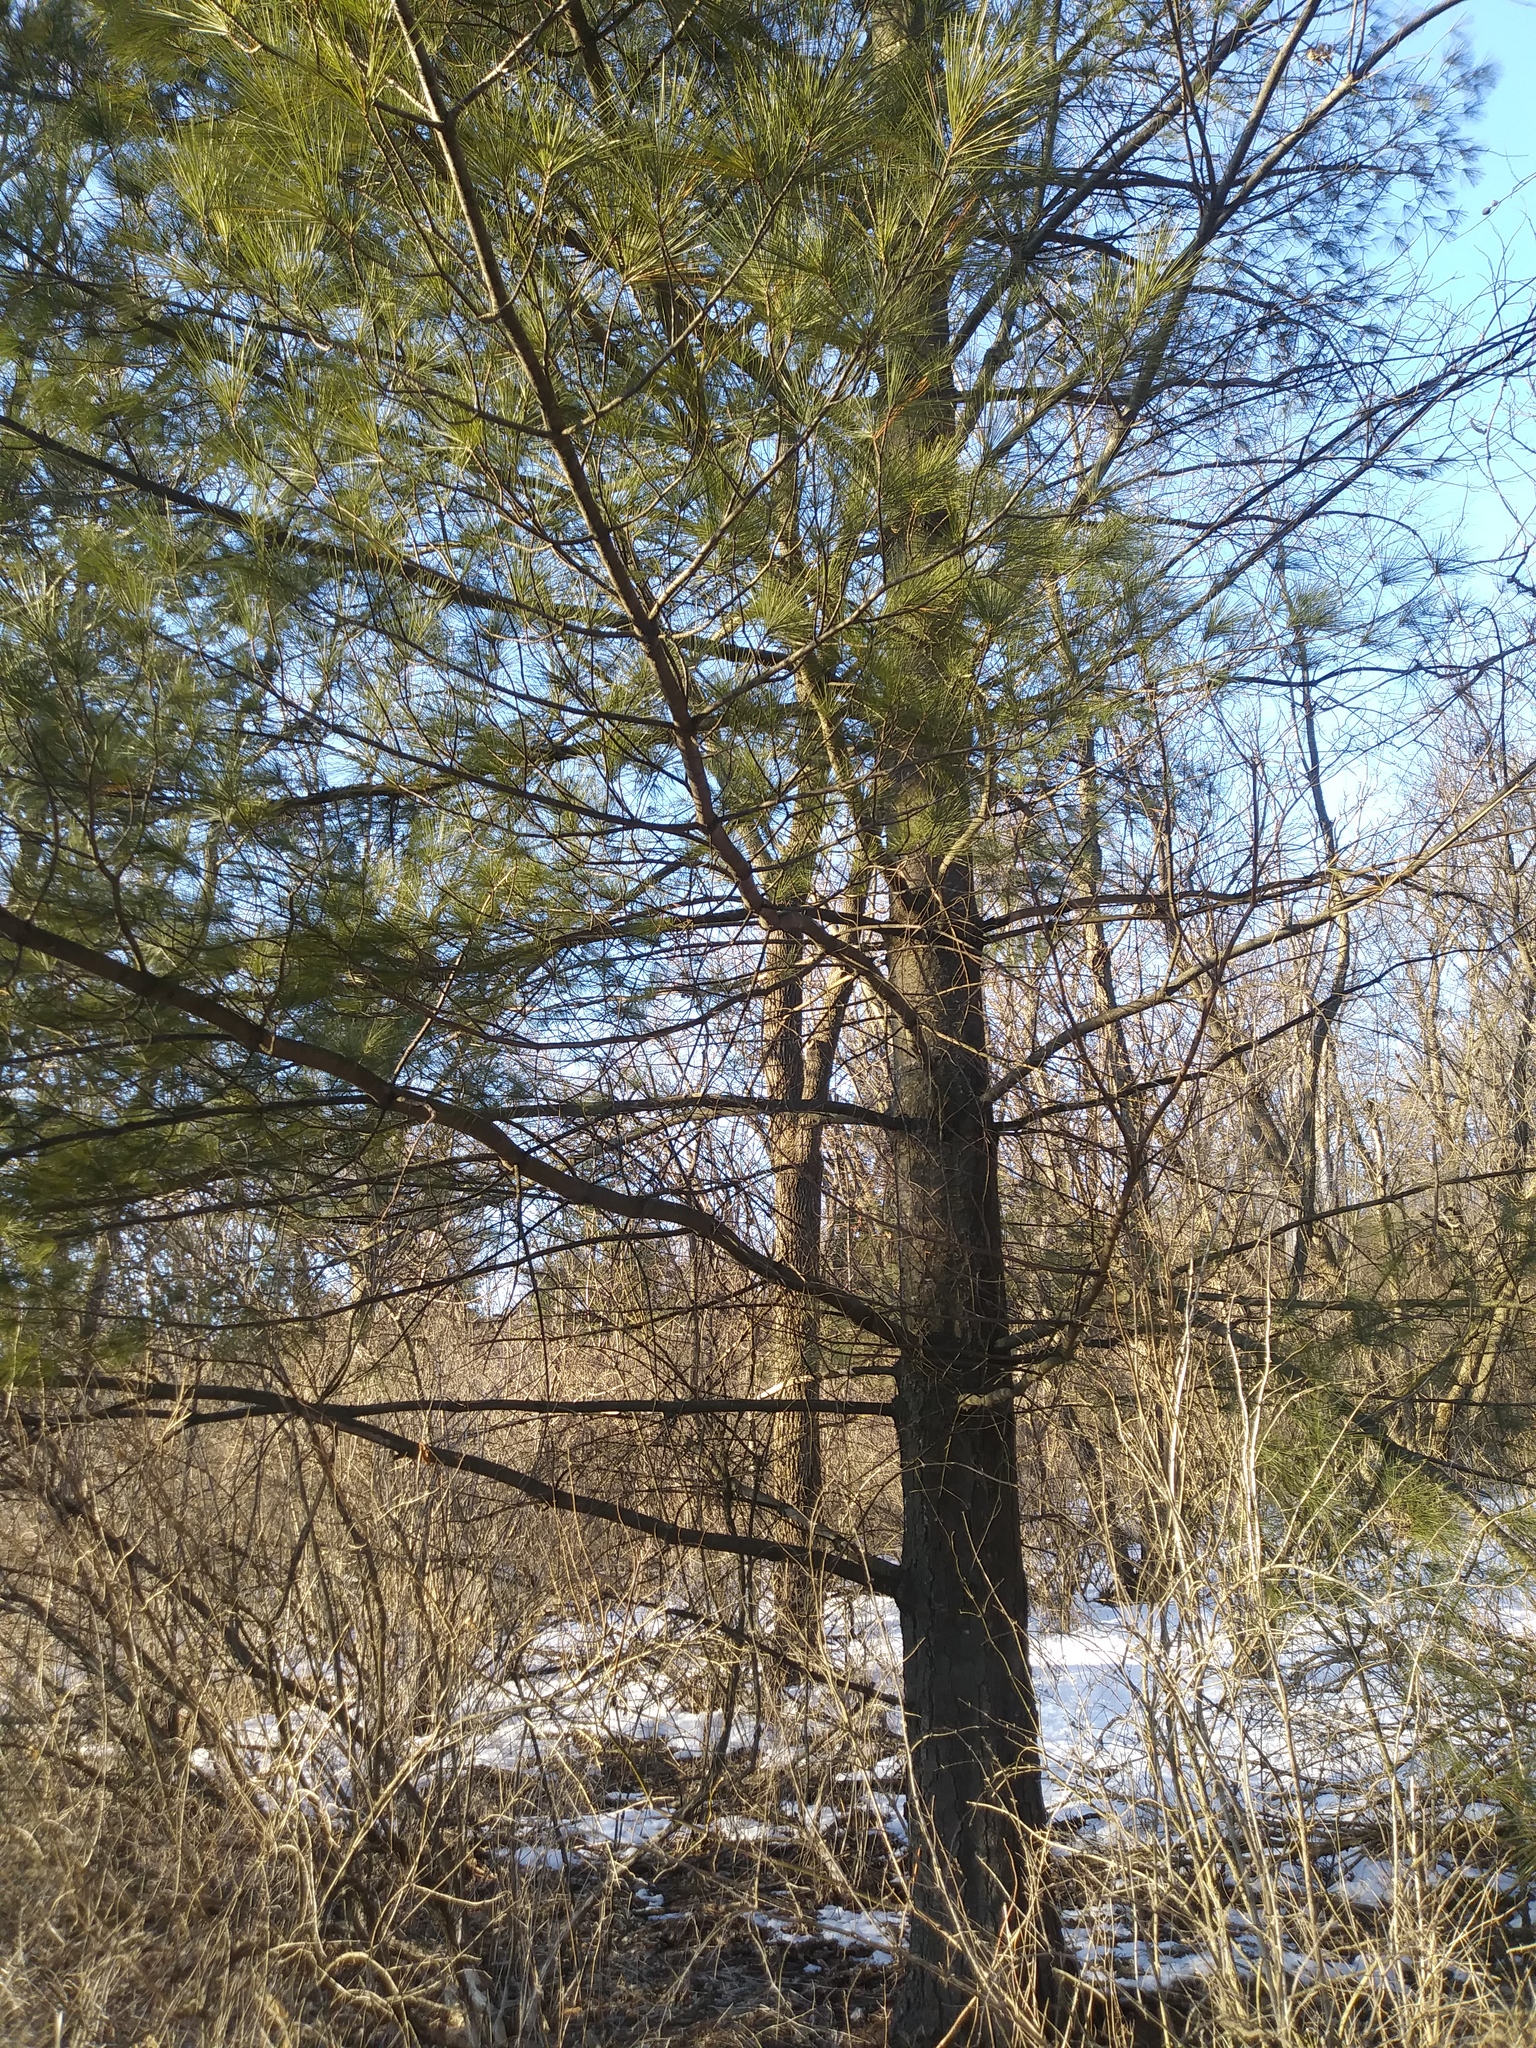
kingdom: Plantae
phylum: Tracheophyta
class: Pinopsida
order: Pinales
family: Pinaceae
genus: Pinus
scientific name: Pinus strobus
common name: Weymouth pine
